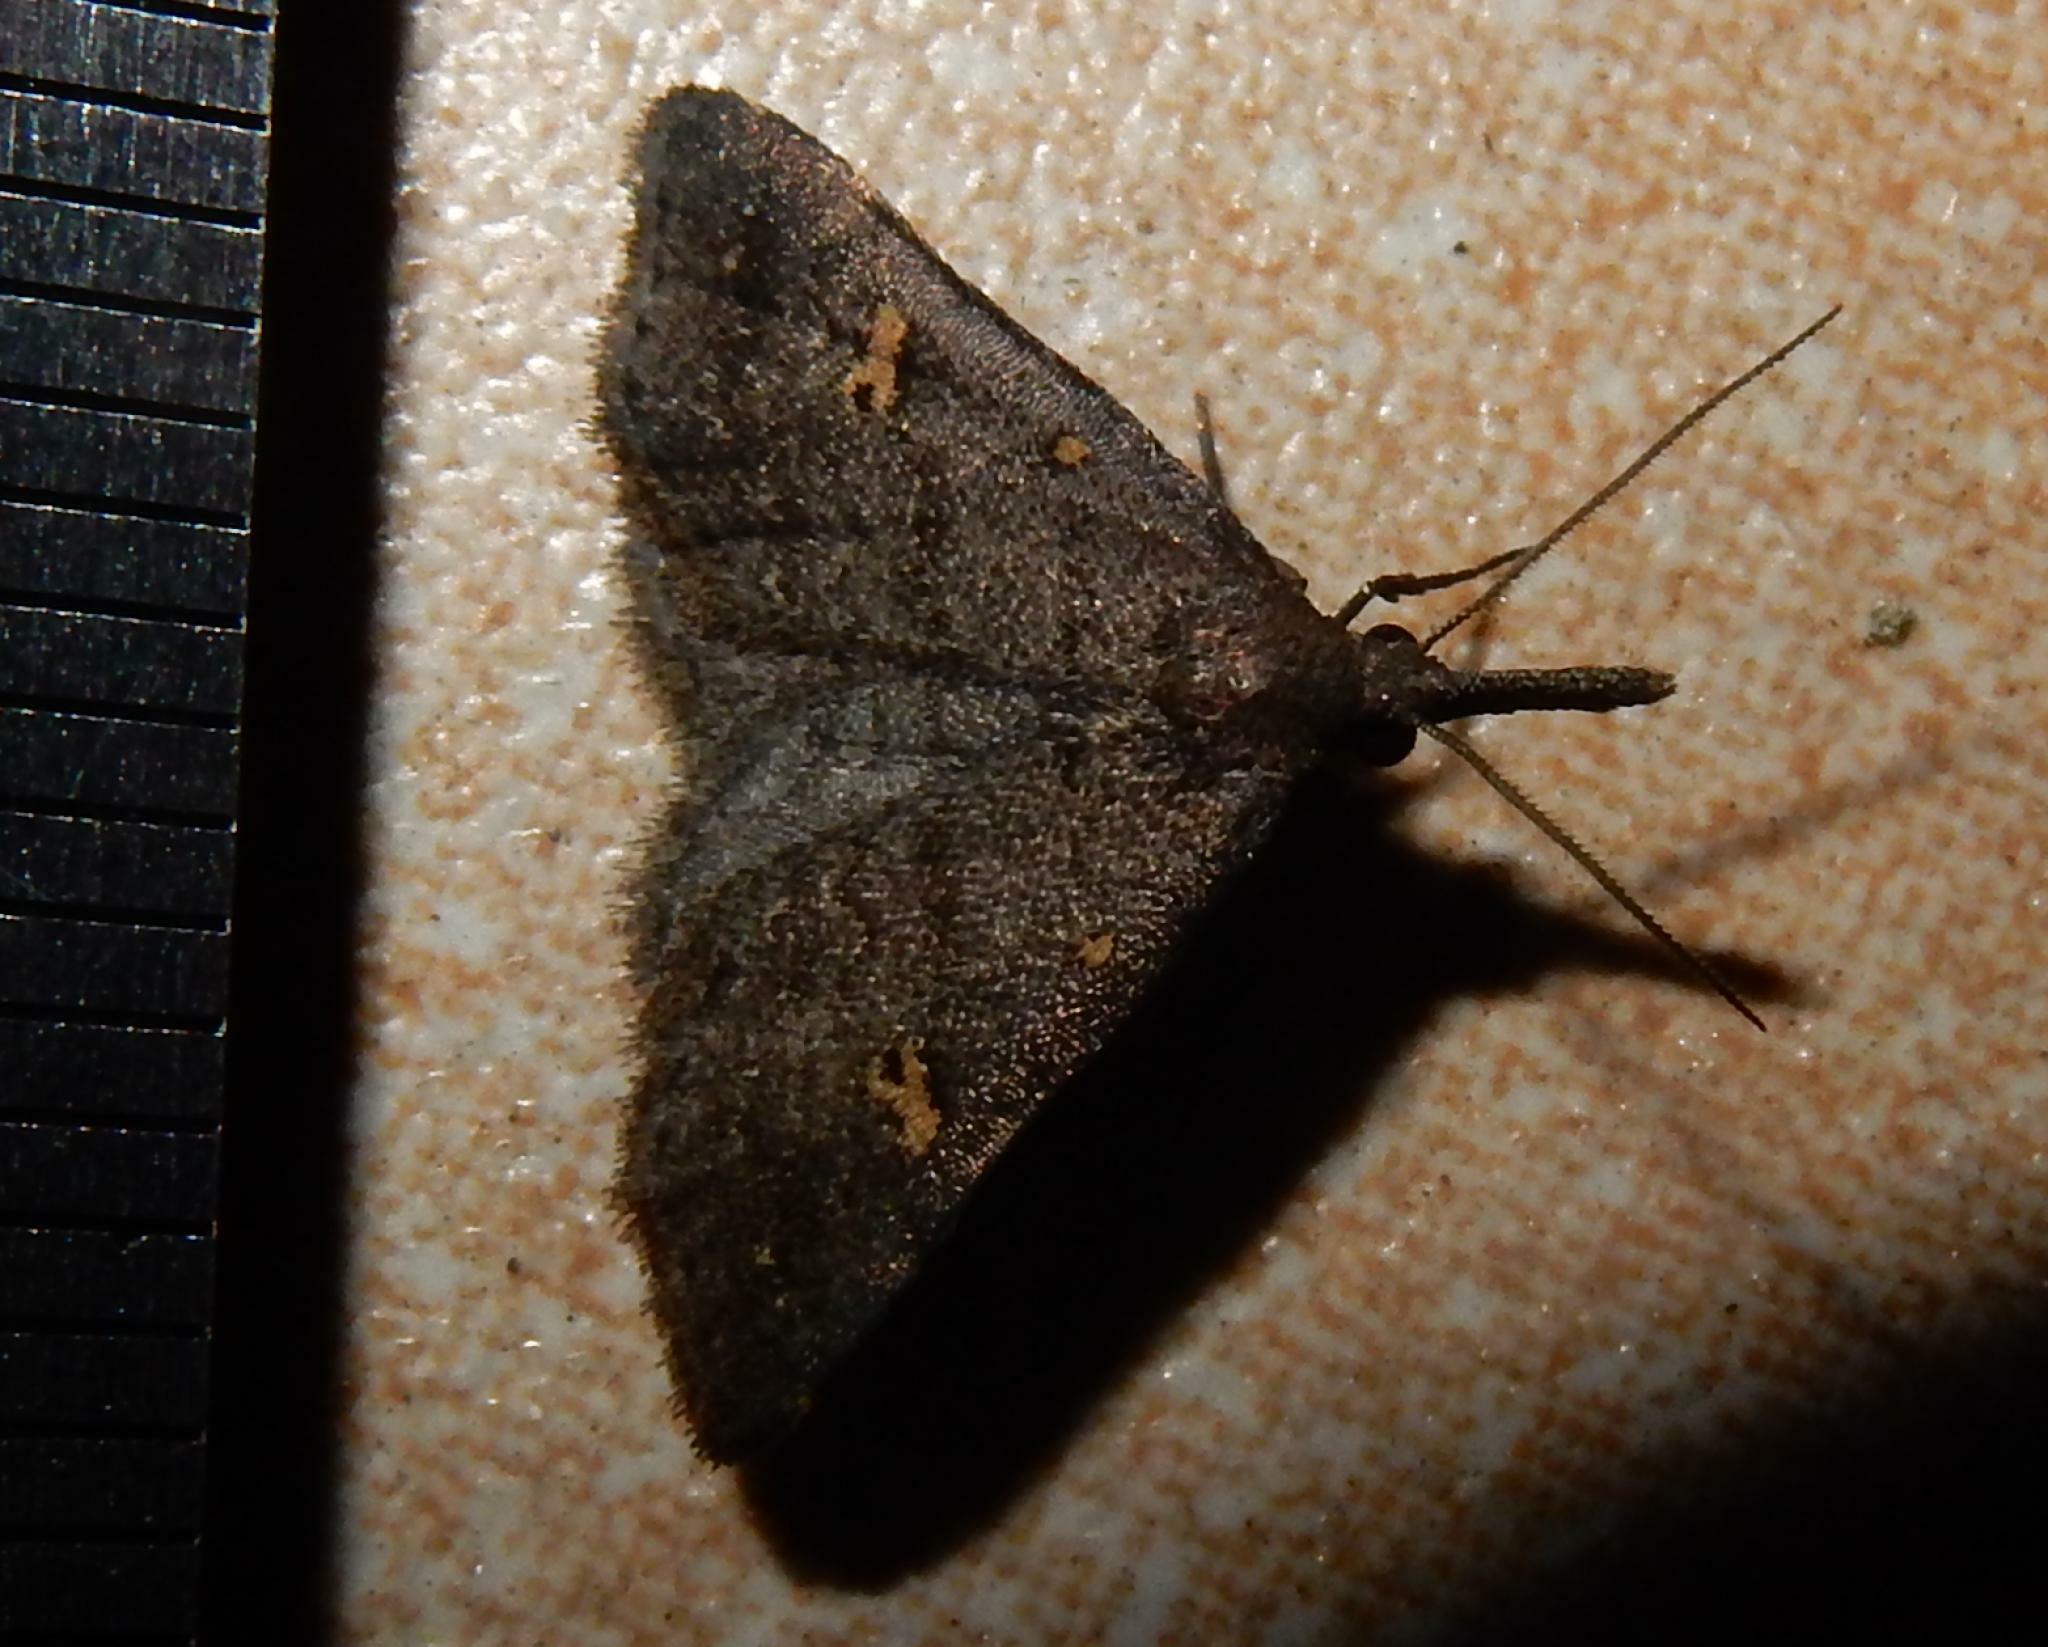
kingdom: Animalia
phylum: Arthropoda
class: Insecta
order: Lepidoptera
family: Erebidae
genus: Naarda
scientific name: Naarda nigripalpis
